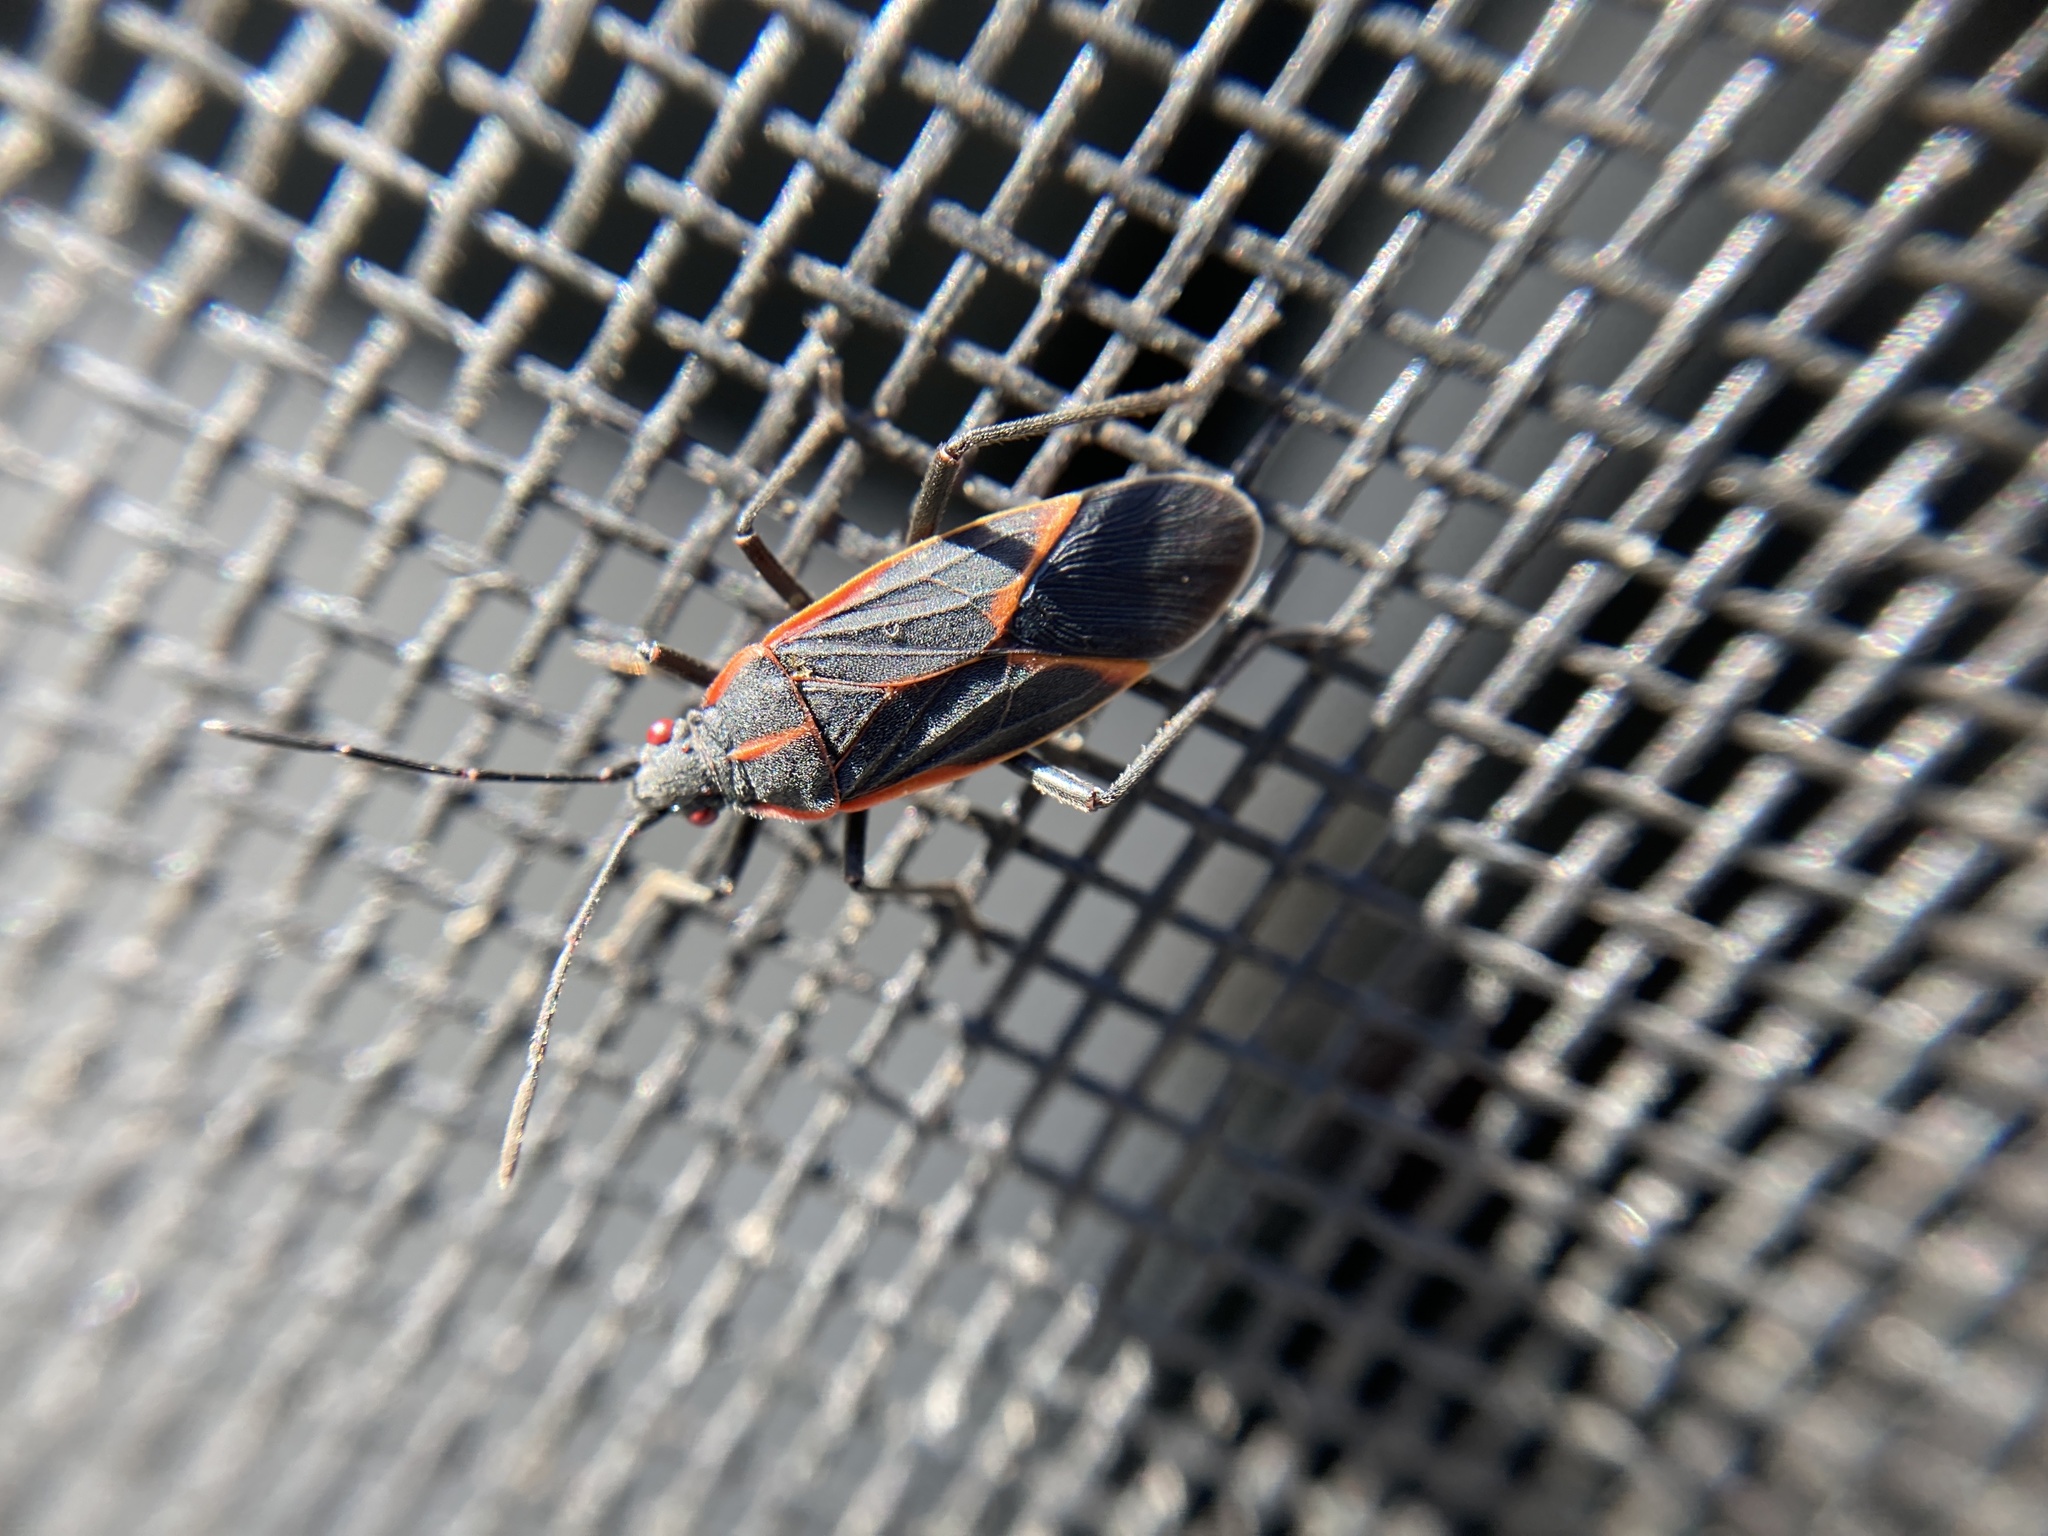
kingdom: Animalia
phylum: Arthropoda
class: Insecta
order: Hemiptera
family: Rhopalidae
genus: Boisea
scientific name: Boisea trivittata
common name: Boxelder bug
